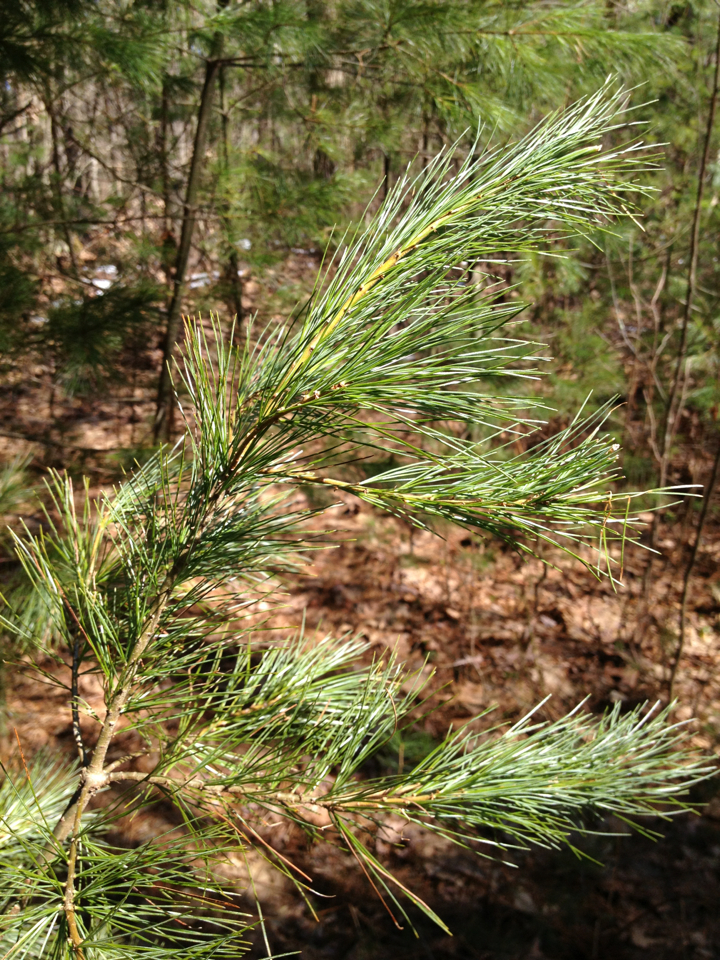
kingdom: Plantae
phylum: Tracheophyta
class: Pinopsida
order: Pinales
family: Pinaceae
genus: Pinus
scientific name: Pinus strobus
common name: Weymouth pine
